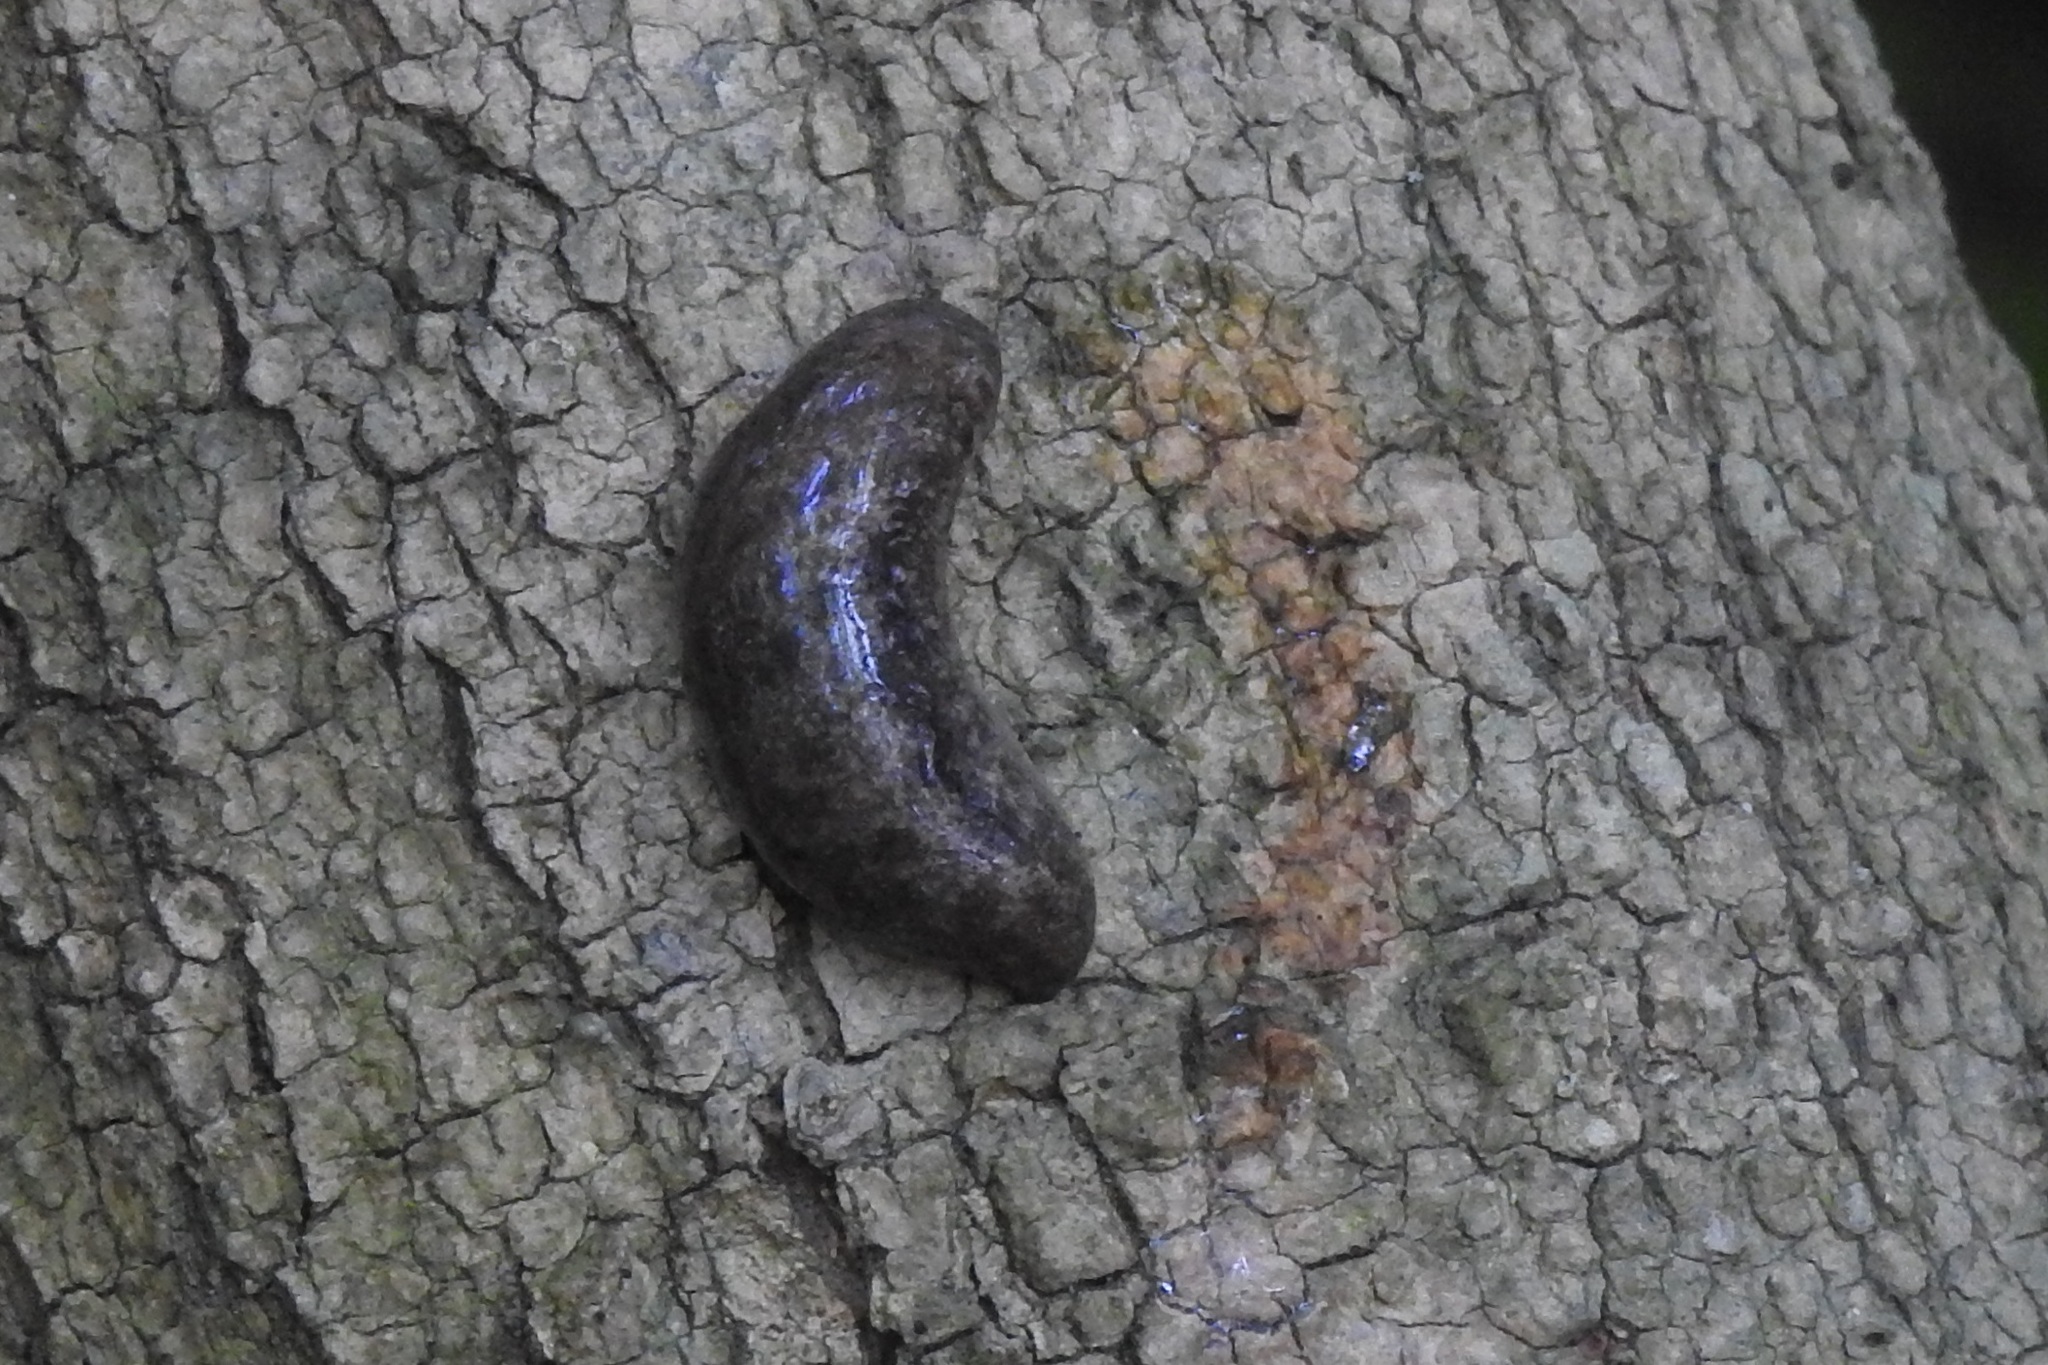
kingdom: Animalia
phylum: Mollusca
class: Gastropoda
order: Stylommatophora
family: Philomycidae
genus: Megapallifera
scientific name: Megapallifera mutabilis
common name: Changeable mantleslug
